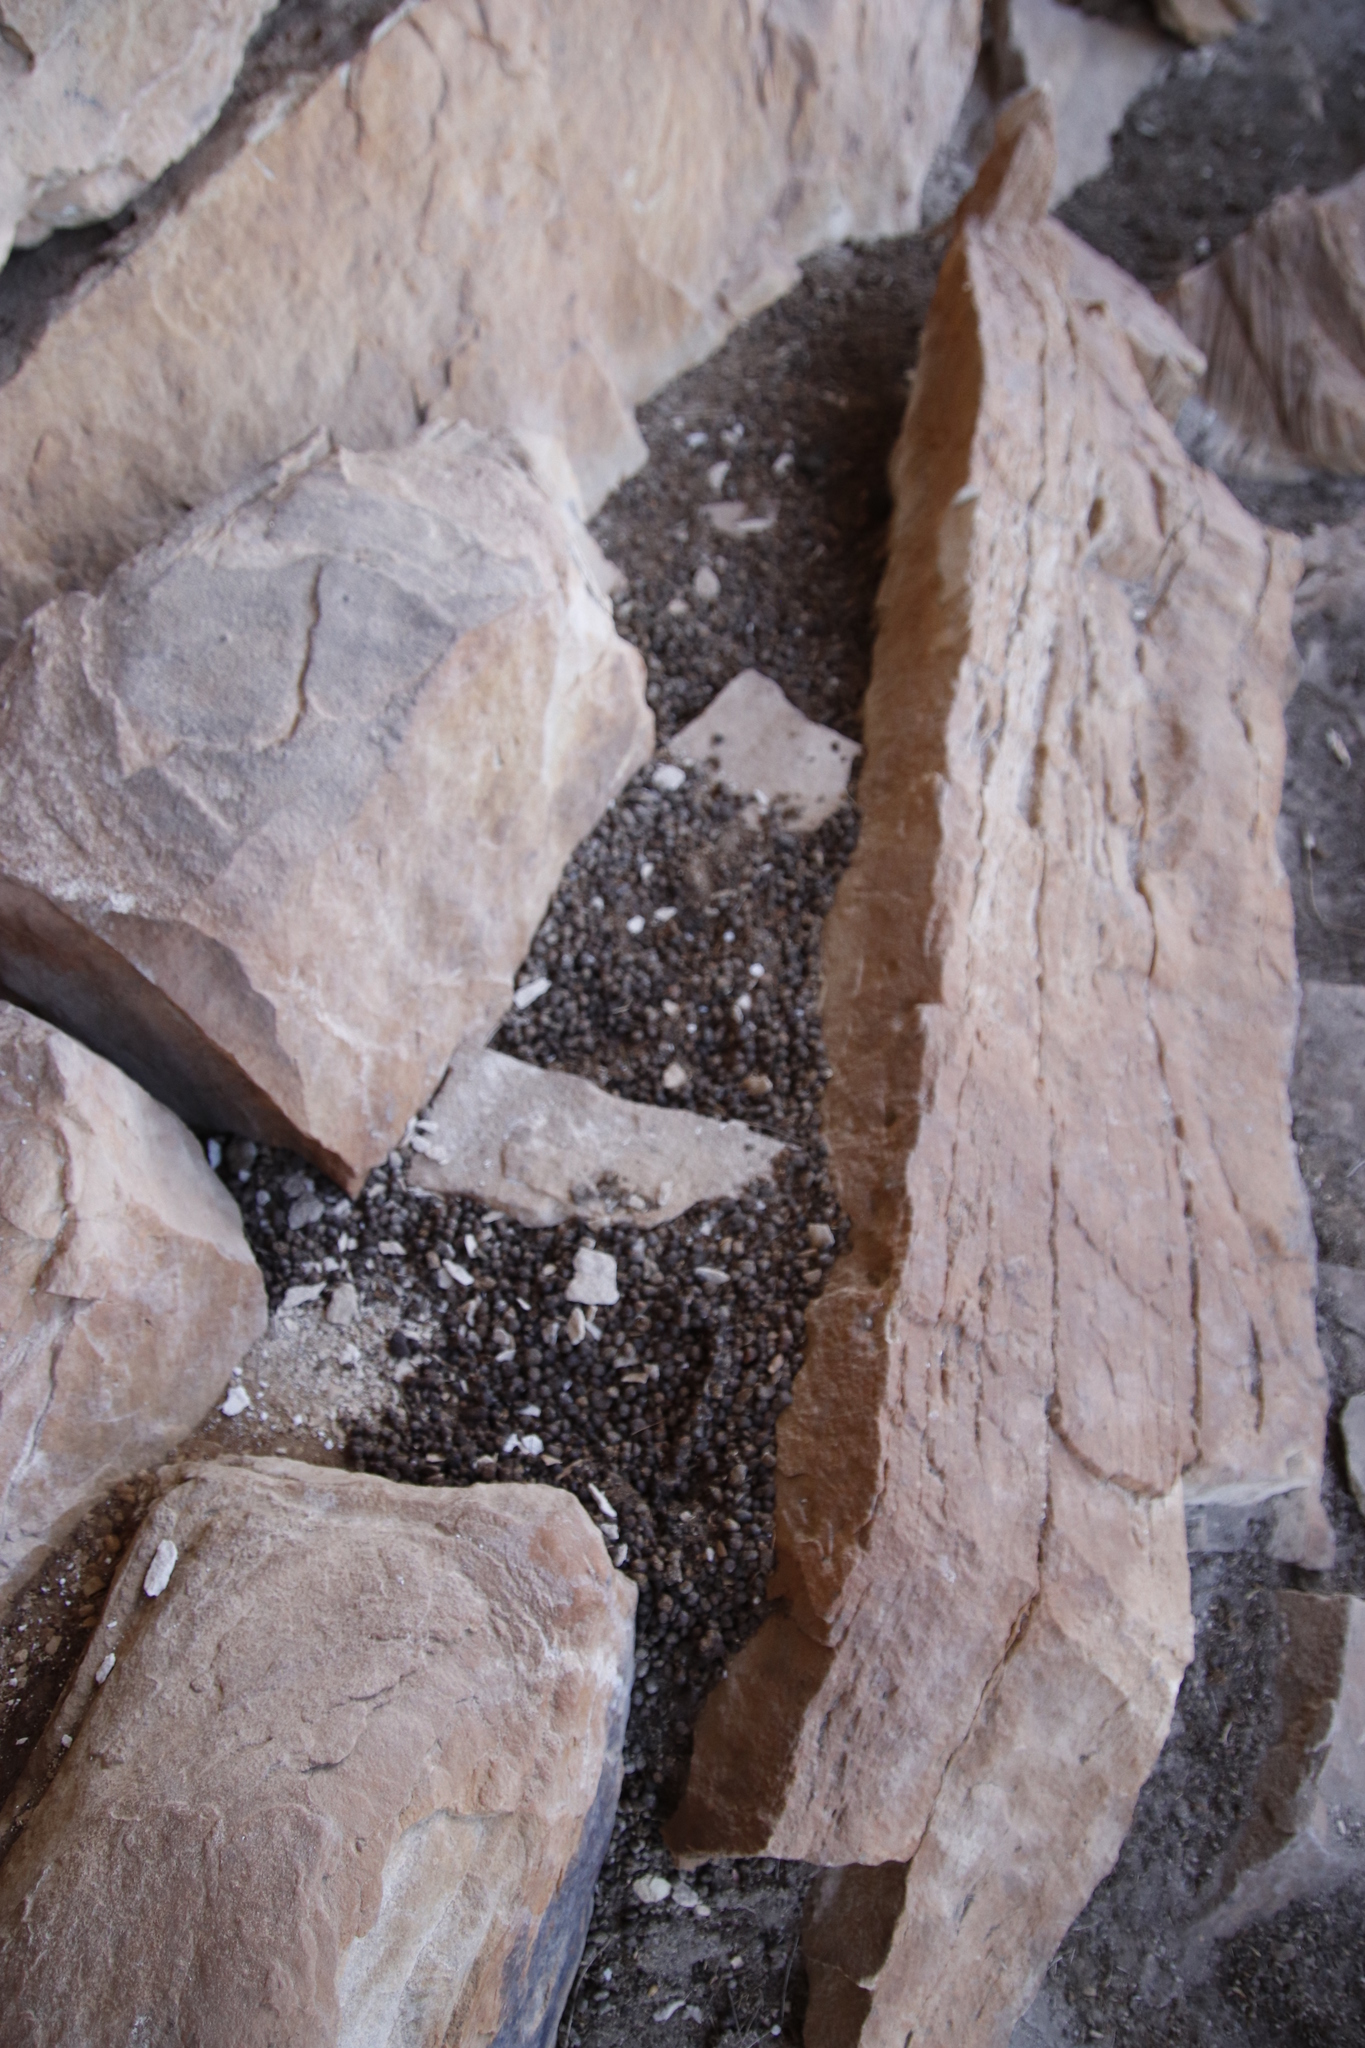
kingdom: Animalia
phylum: Chordata
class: Mammalia
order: Hyracoidea
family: Procaviidae
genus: Procavia
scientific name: Procavia capensis
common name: Rock hyrax
